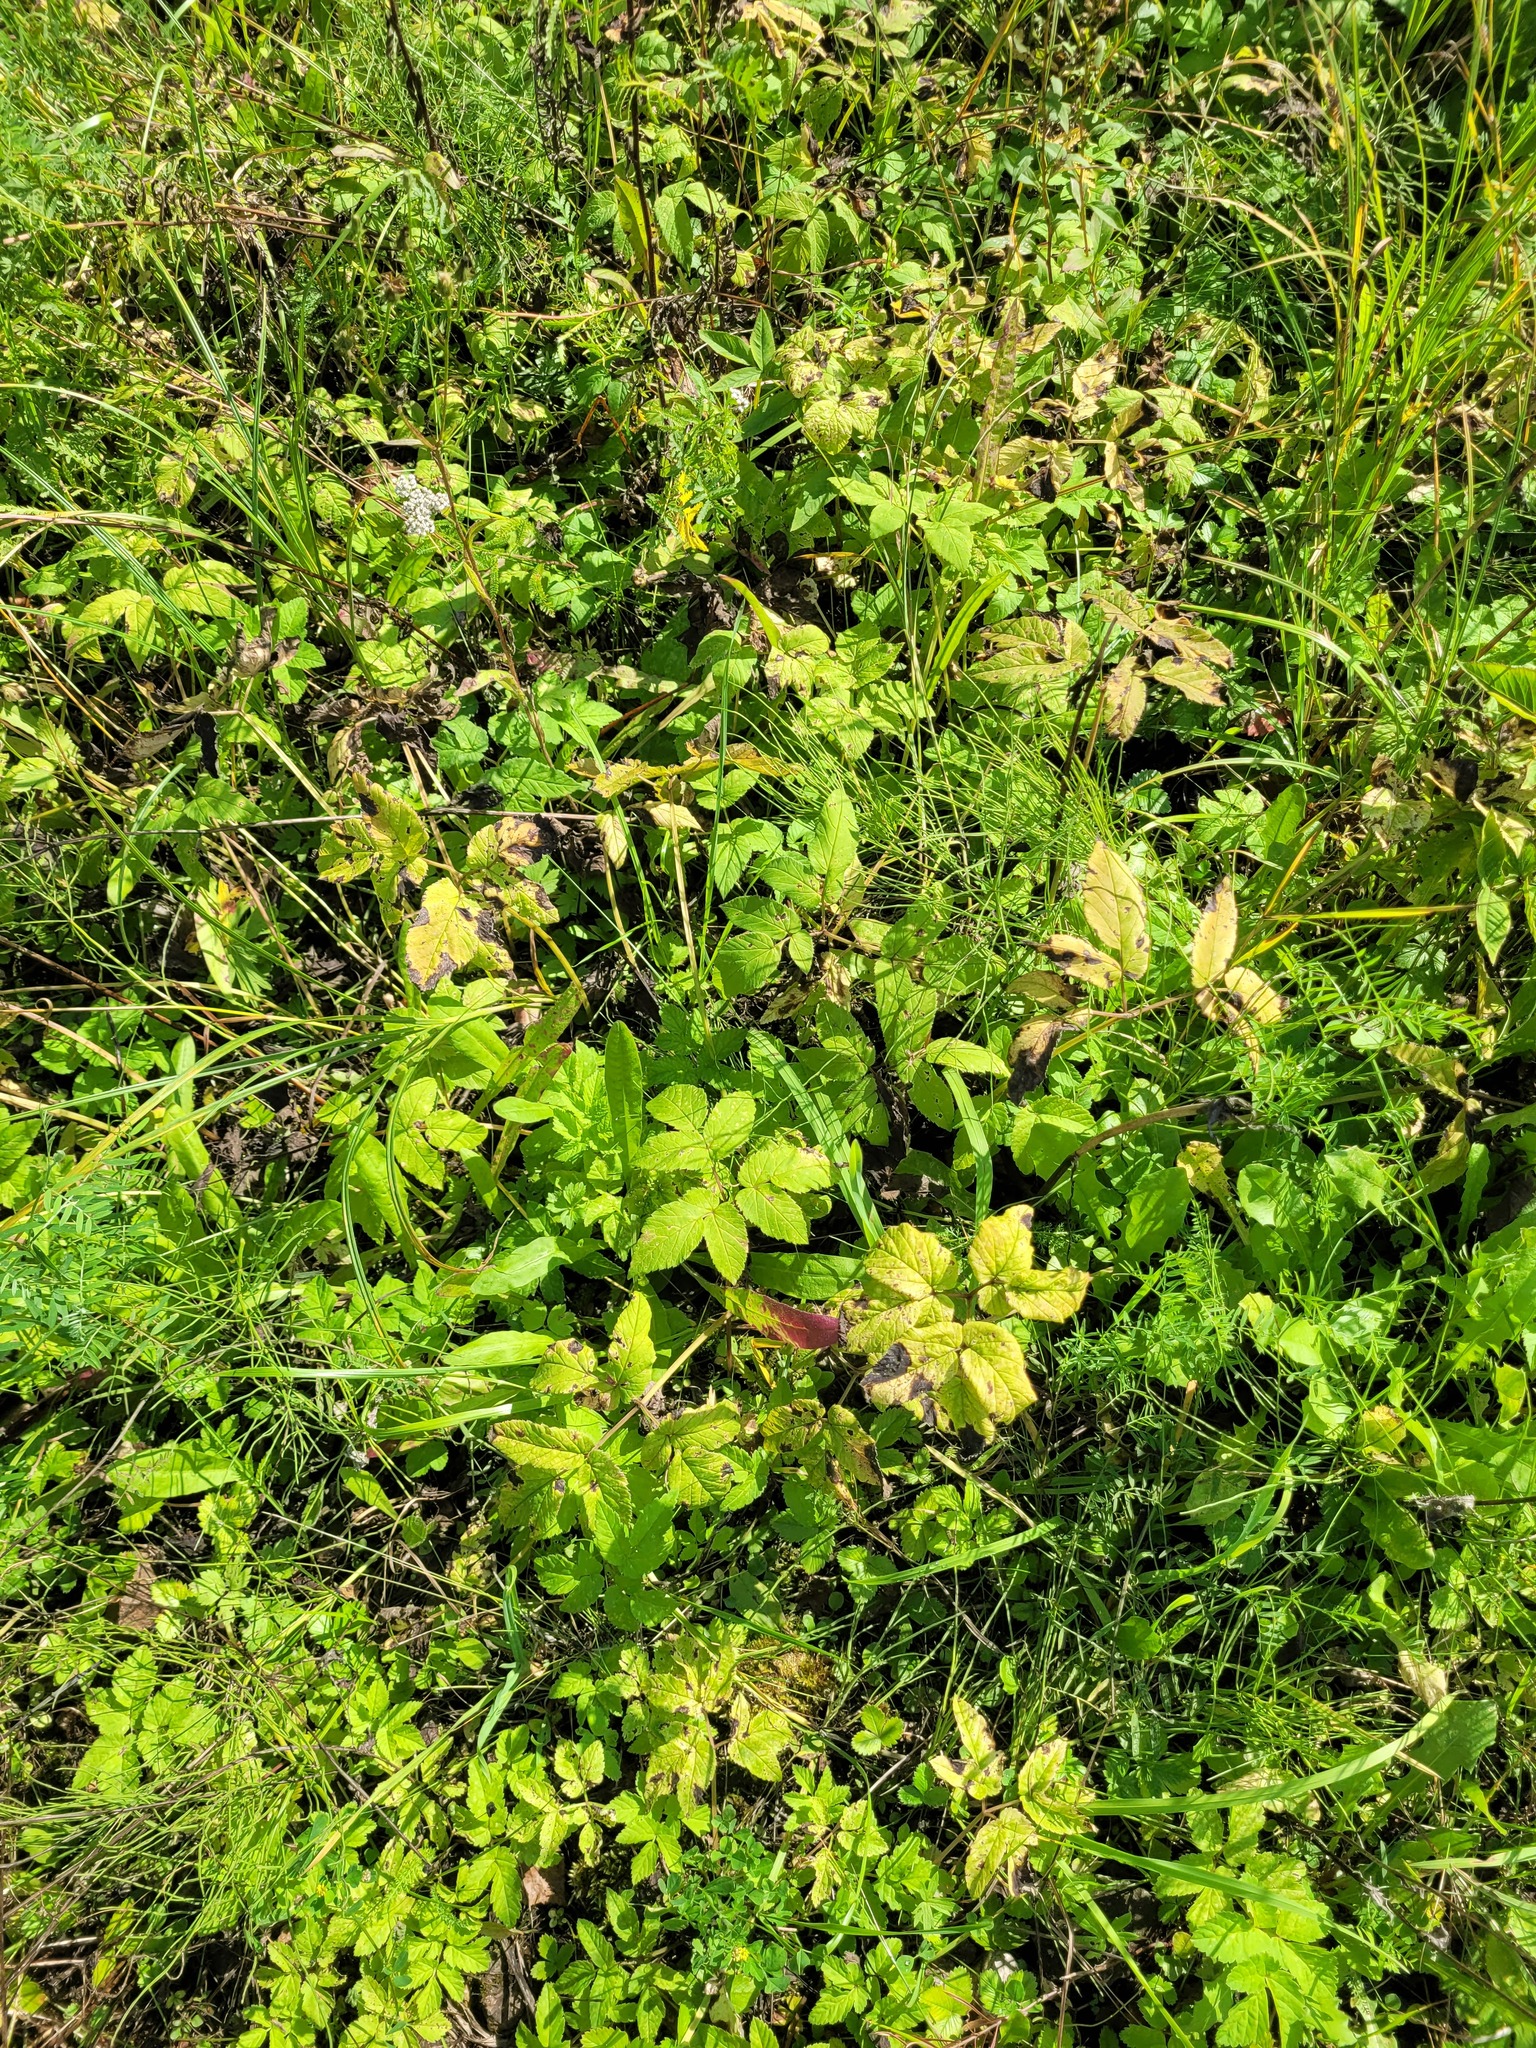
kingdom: Plantae
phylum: Tracheophyta
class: Magnoliopsida
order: Apiales
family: Apiaceae
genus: Aegopodium
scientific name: Aegopodium podagraria
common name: Ground-elder
